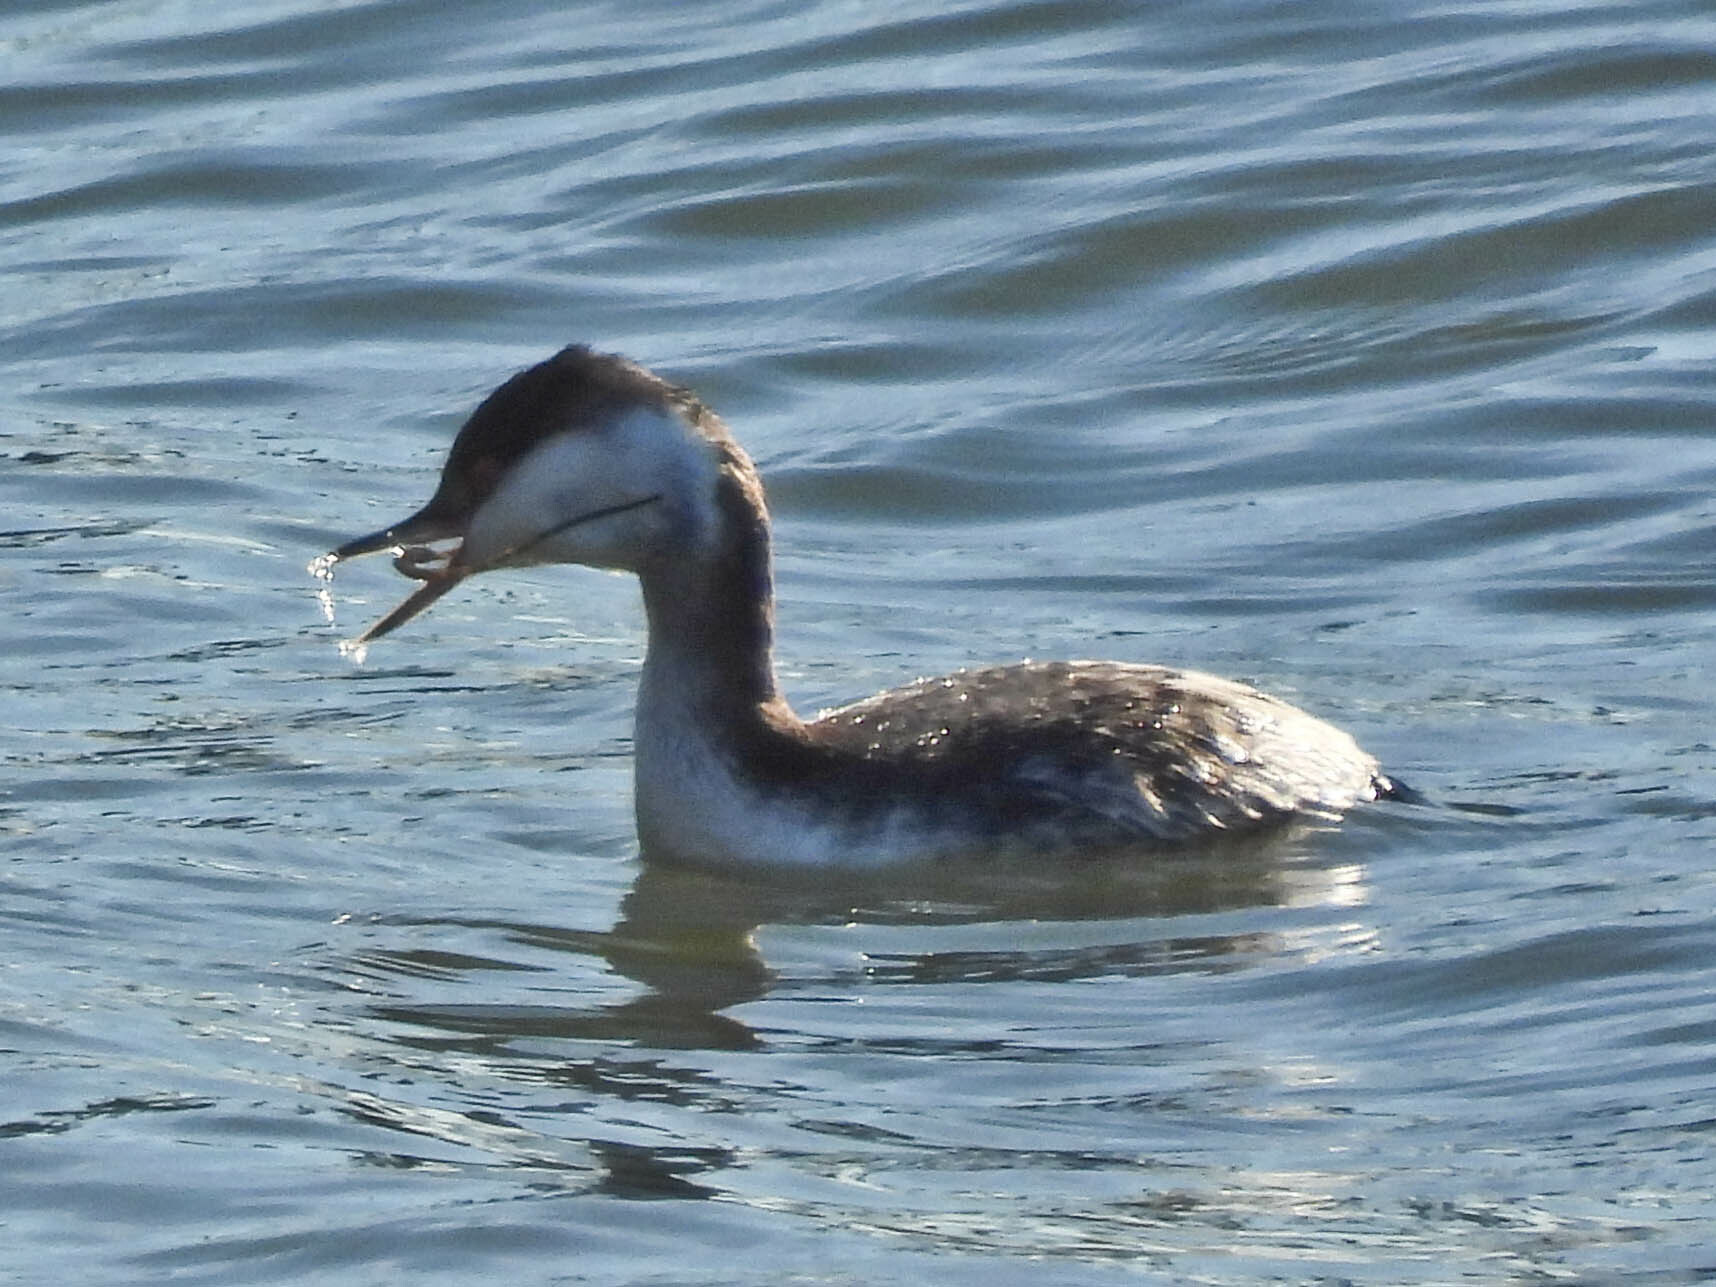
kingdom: Animalia
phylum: Chordata
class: Aves
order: Podicipediformes
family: Podicipedidae
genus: Podiceps
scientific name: Podiceps auritus
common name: Horned grebe
